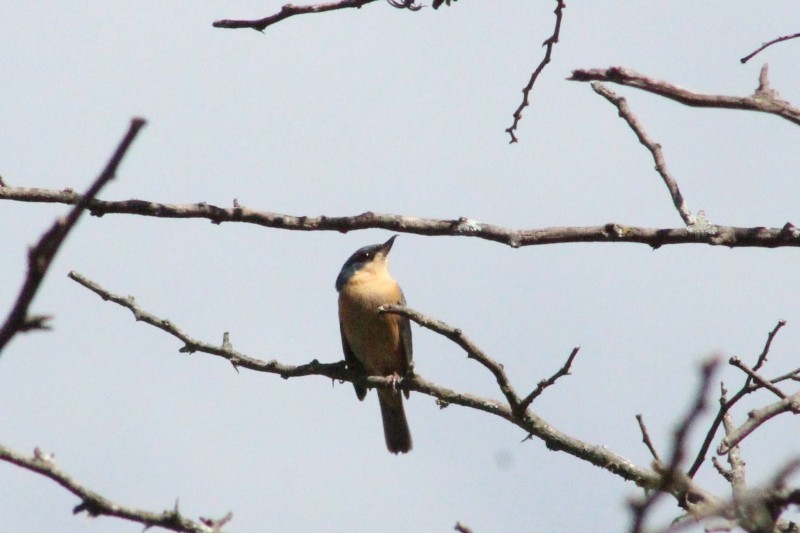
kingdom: Animalia
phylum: Chordata
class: Aves
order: Passeriformes
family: Thraupidae
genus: Diglossa
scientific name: Diglossa sittoides
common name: Rusty flowerpiercer
